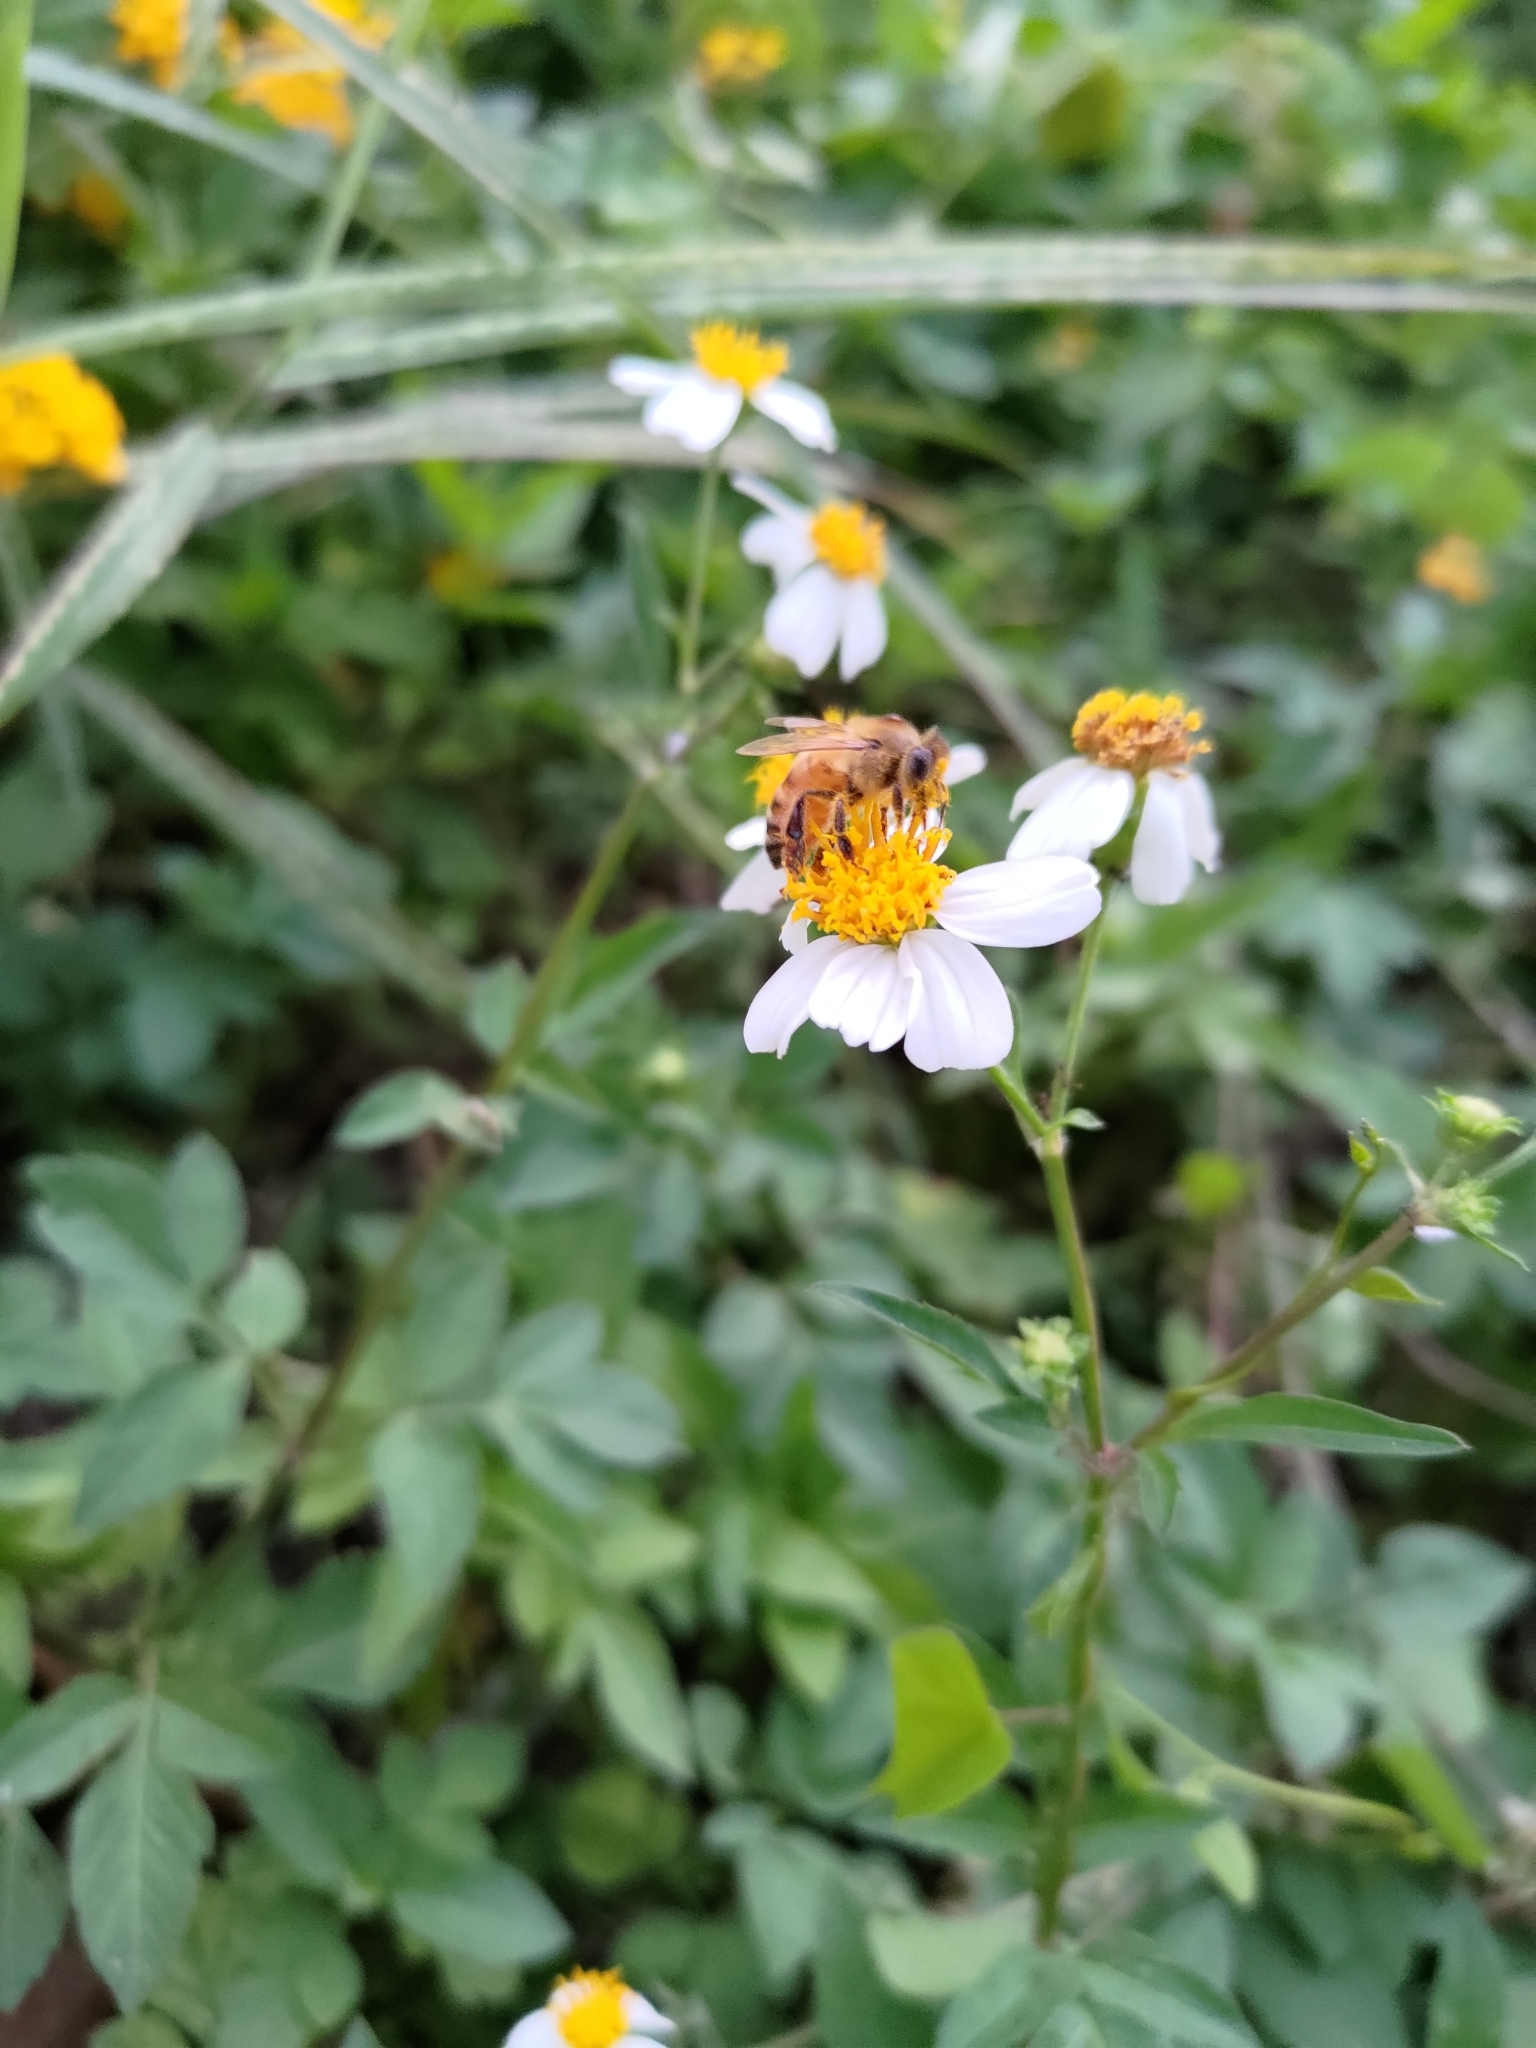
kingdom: Animalia
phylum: Arthropoda
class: Insecta
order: Hymenoptera
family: Apidae
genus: Apis
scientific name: Apis mellifera
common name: Honey bee
